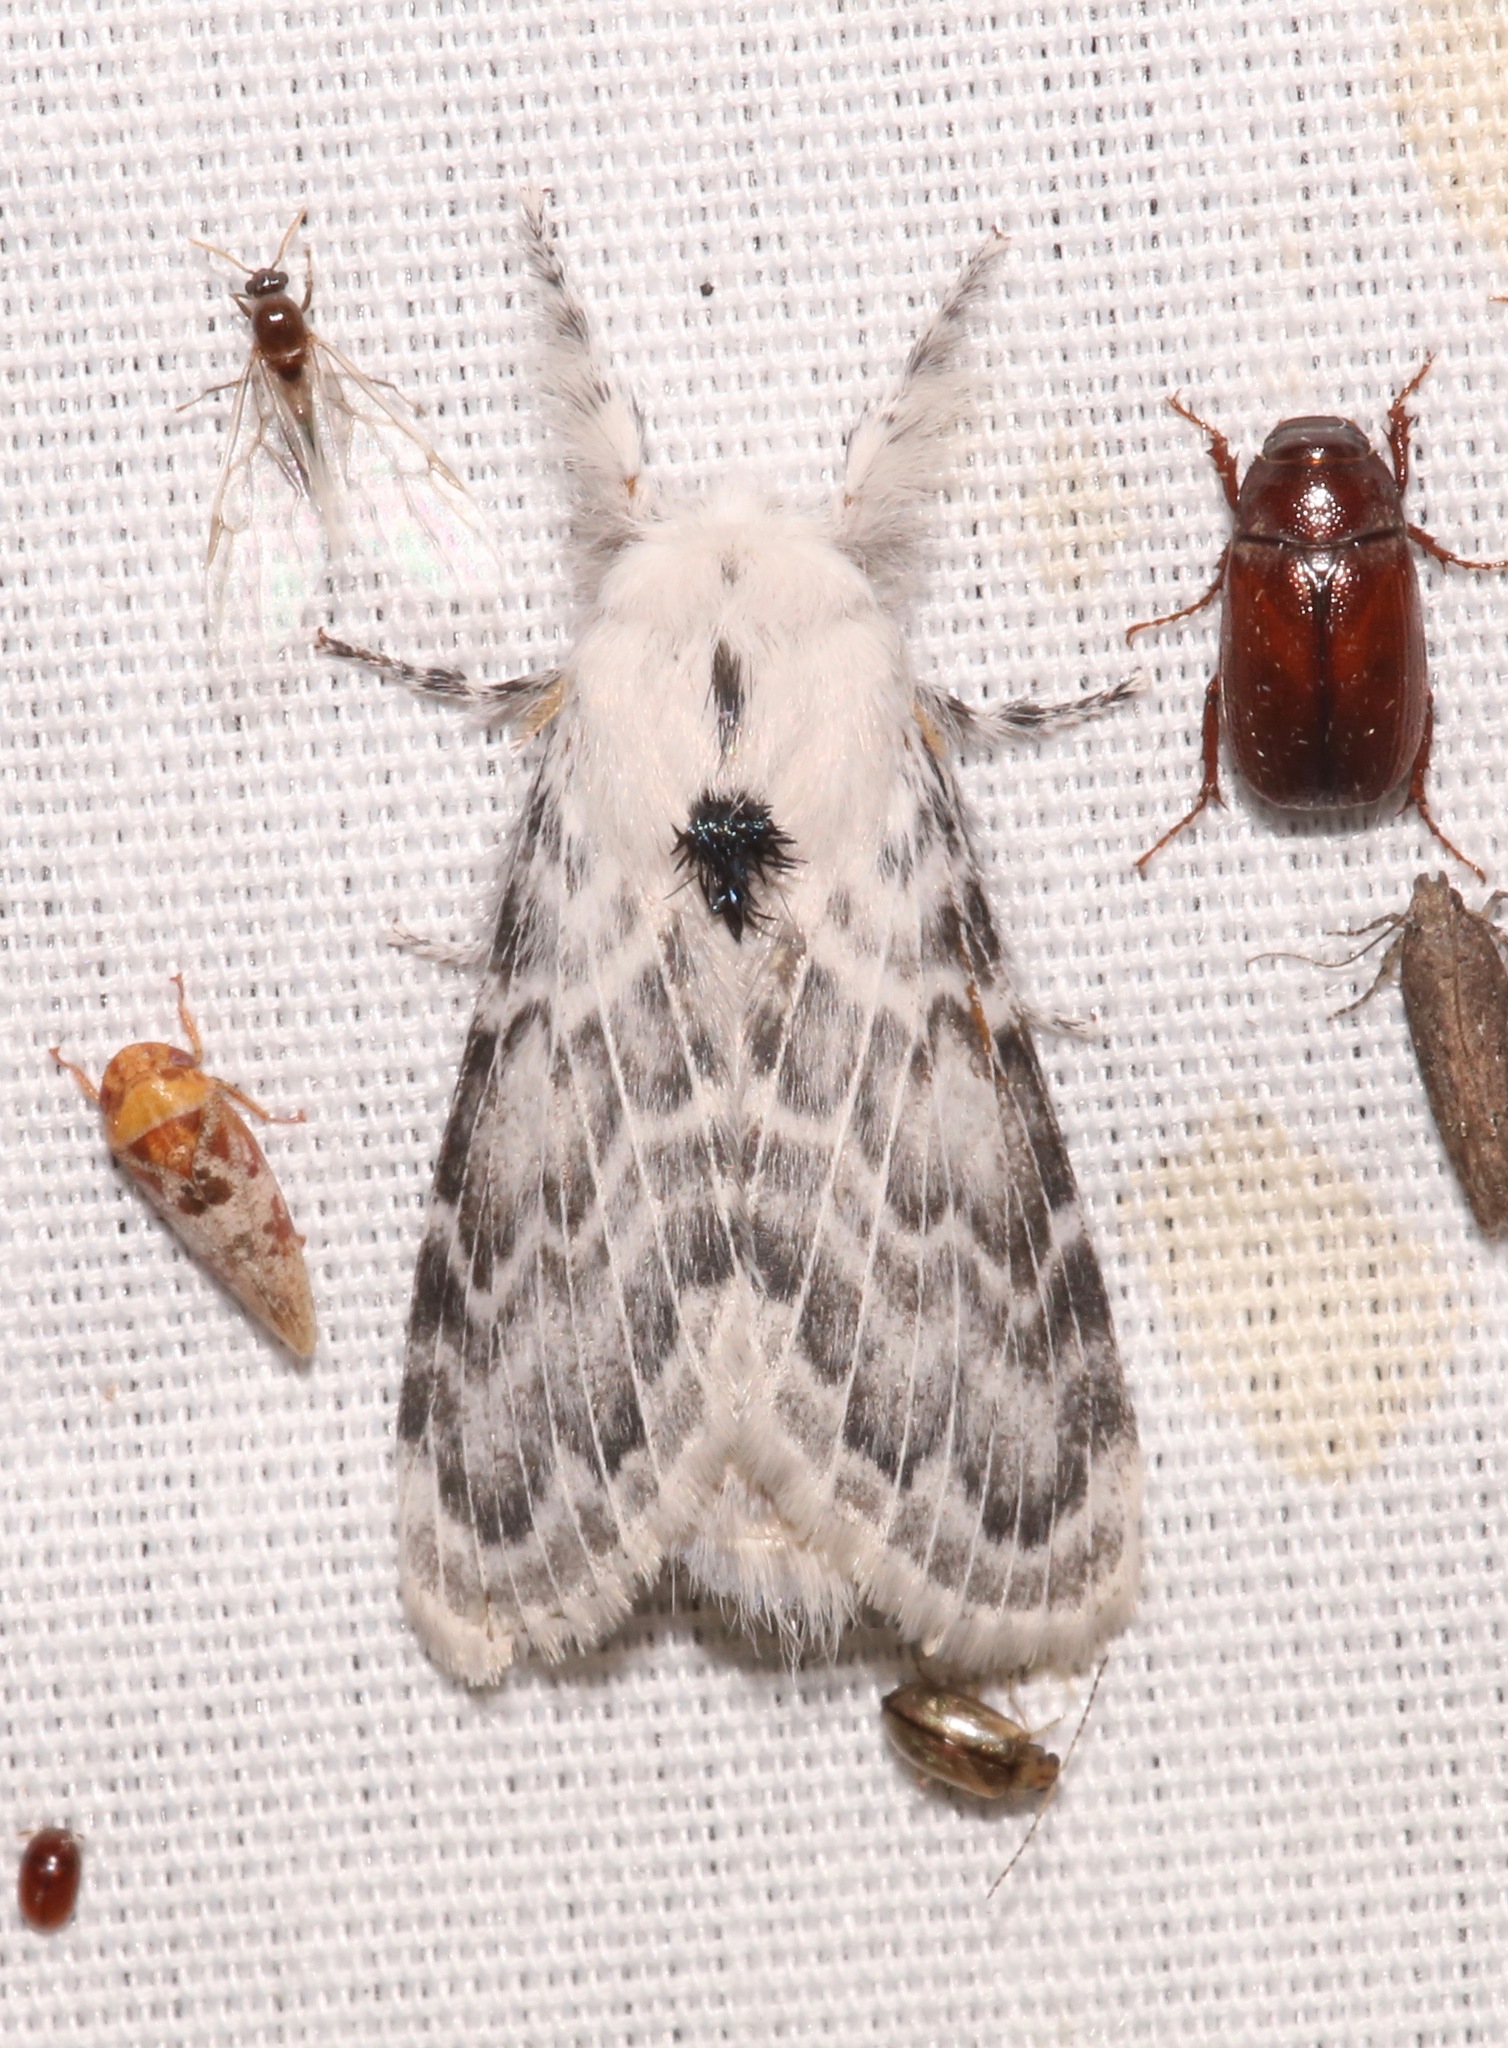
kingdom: Animalia
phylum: Arthropoda
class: Insecta
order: Lepidoptera
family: Lasiocampidae
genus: Apotolype
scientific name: Apotolype brevicrista
